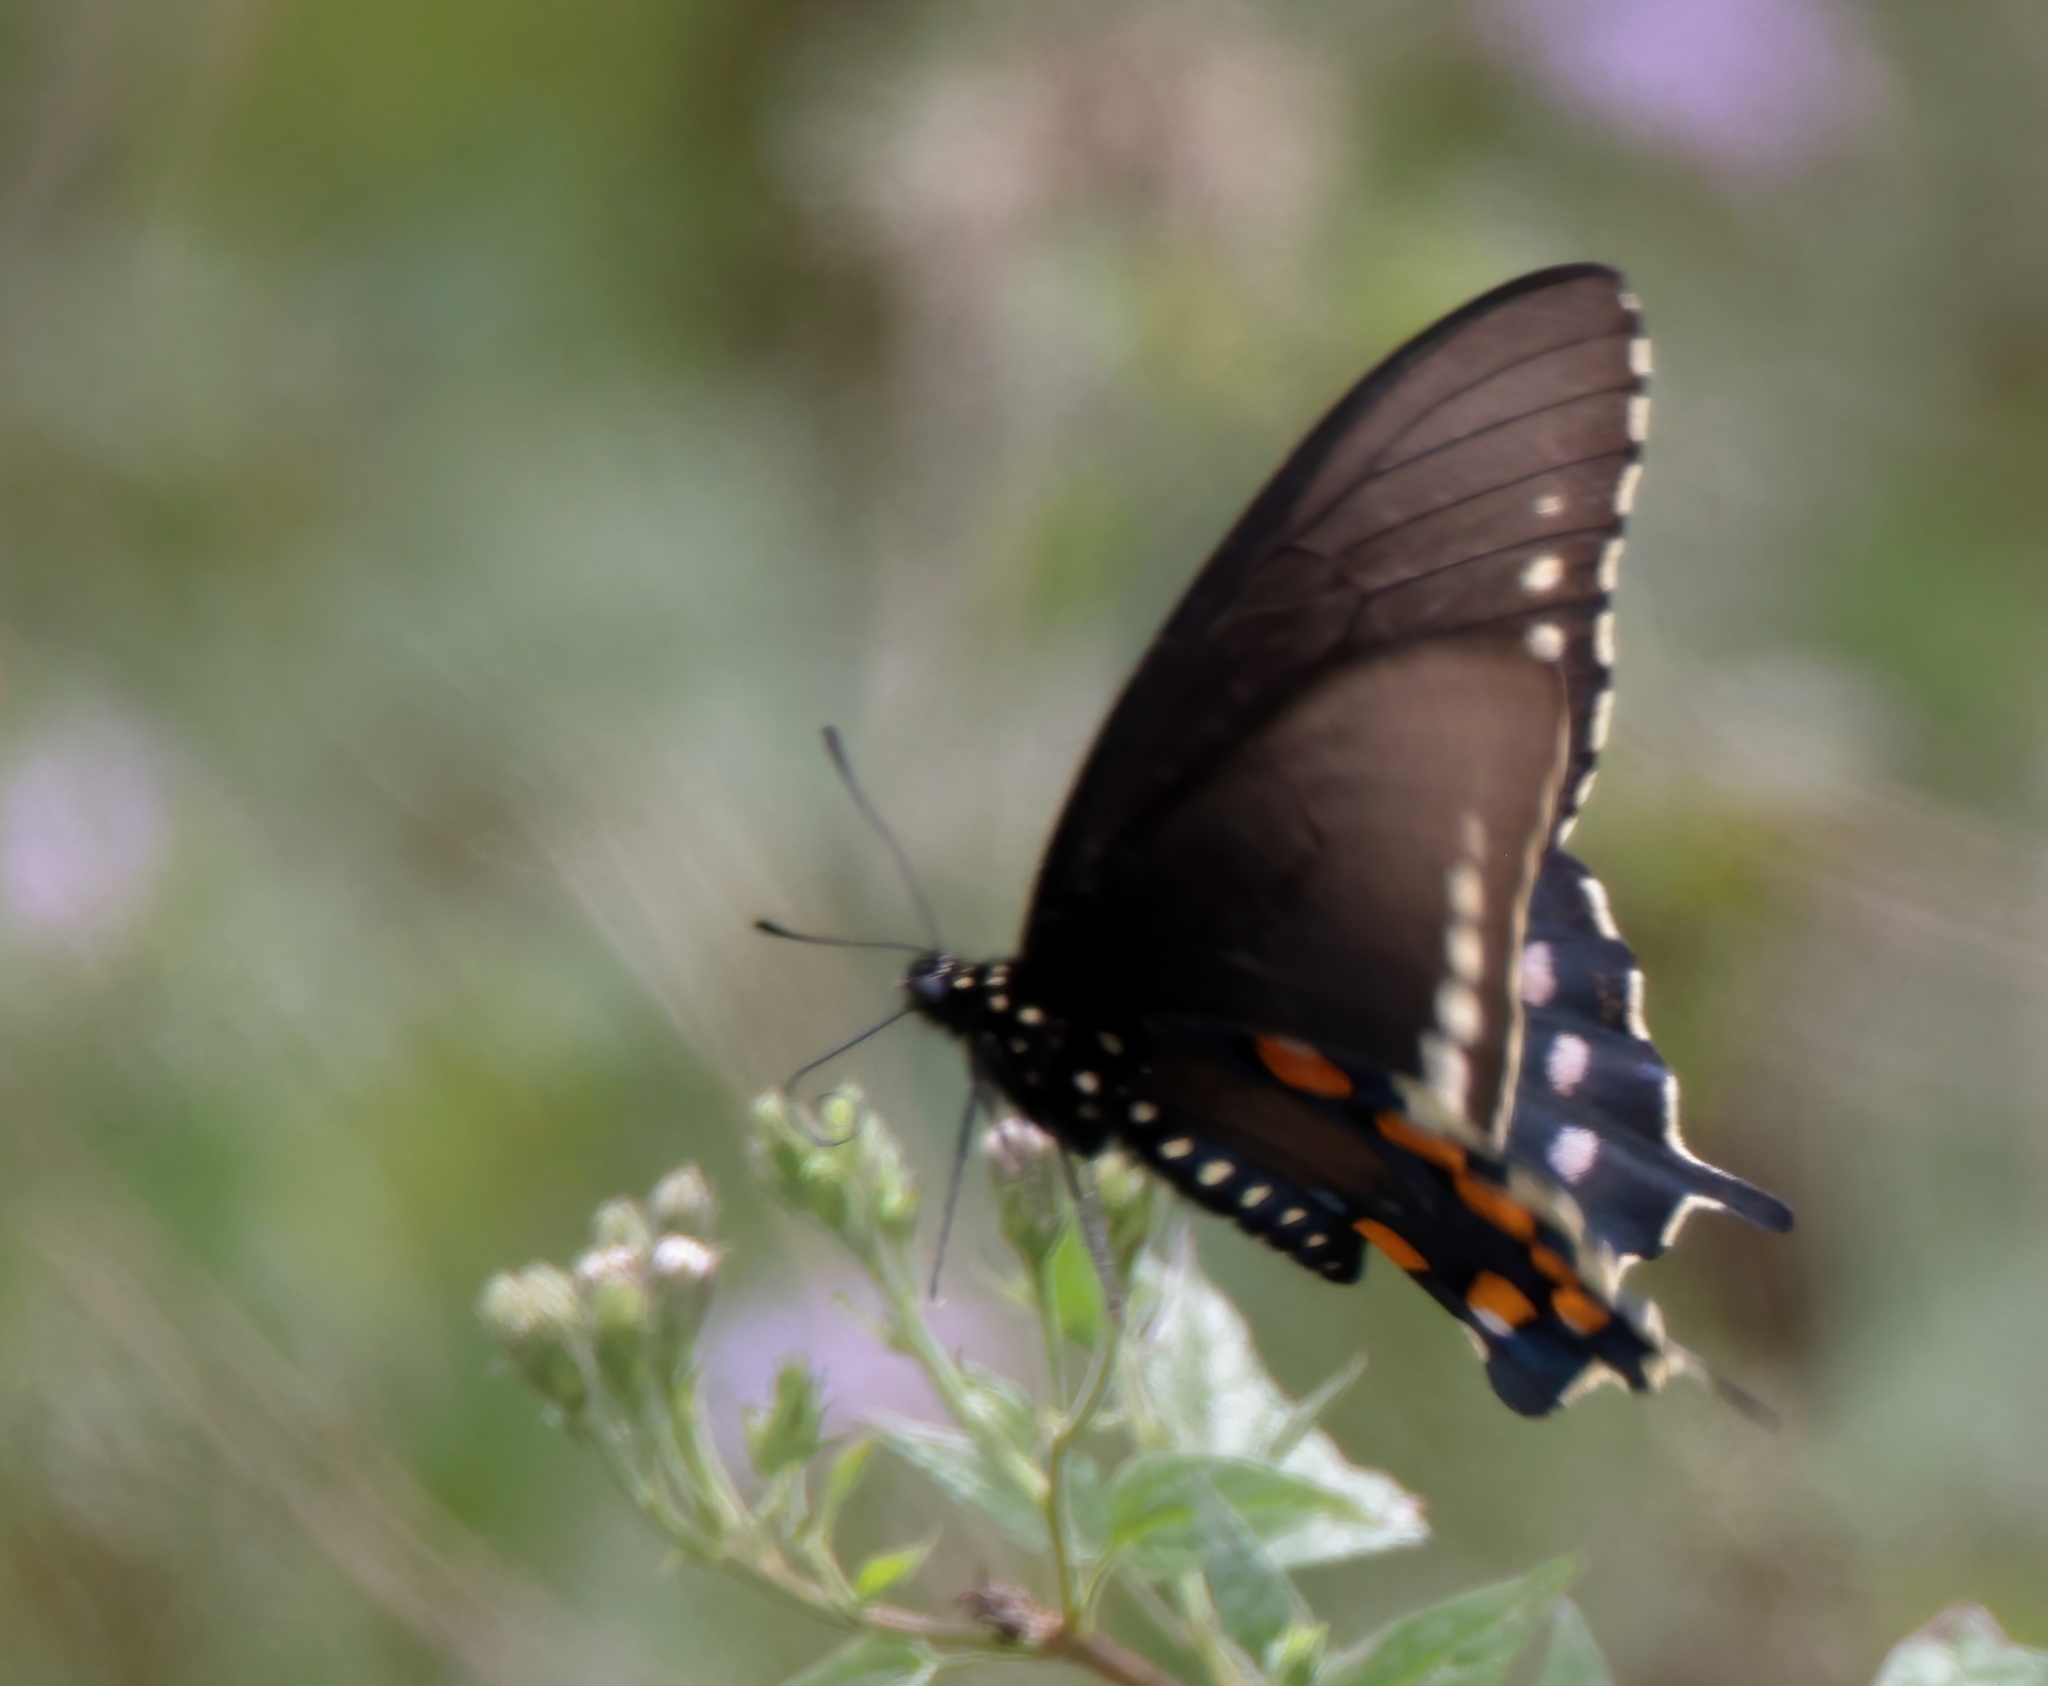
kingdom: Animalia
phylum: Arthropoda
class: Insecta
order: Lepidoptera
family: Papilionidae
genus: Battus
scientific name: Battus philenor
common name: Pipevine swallowtail
